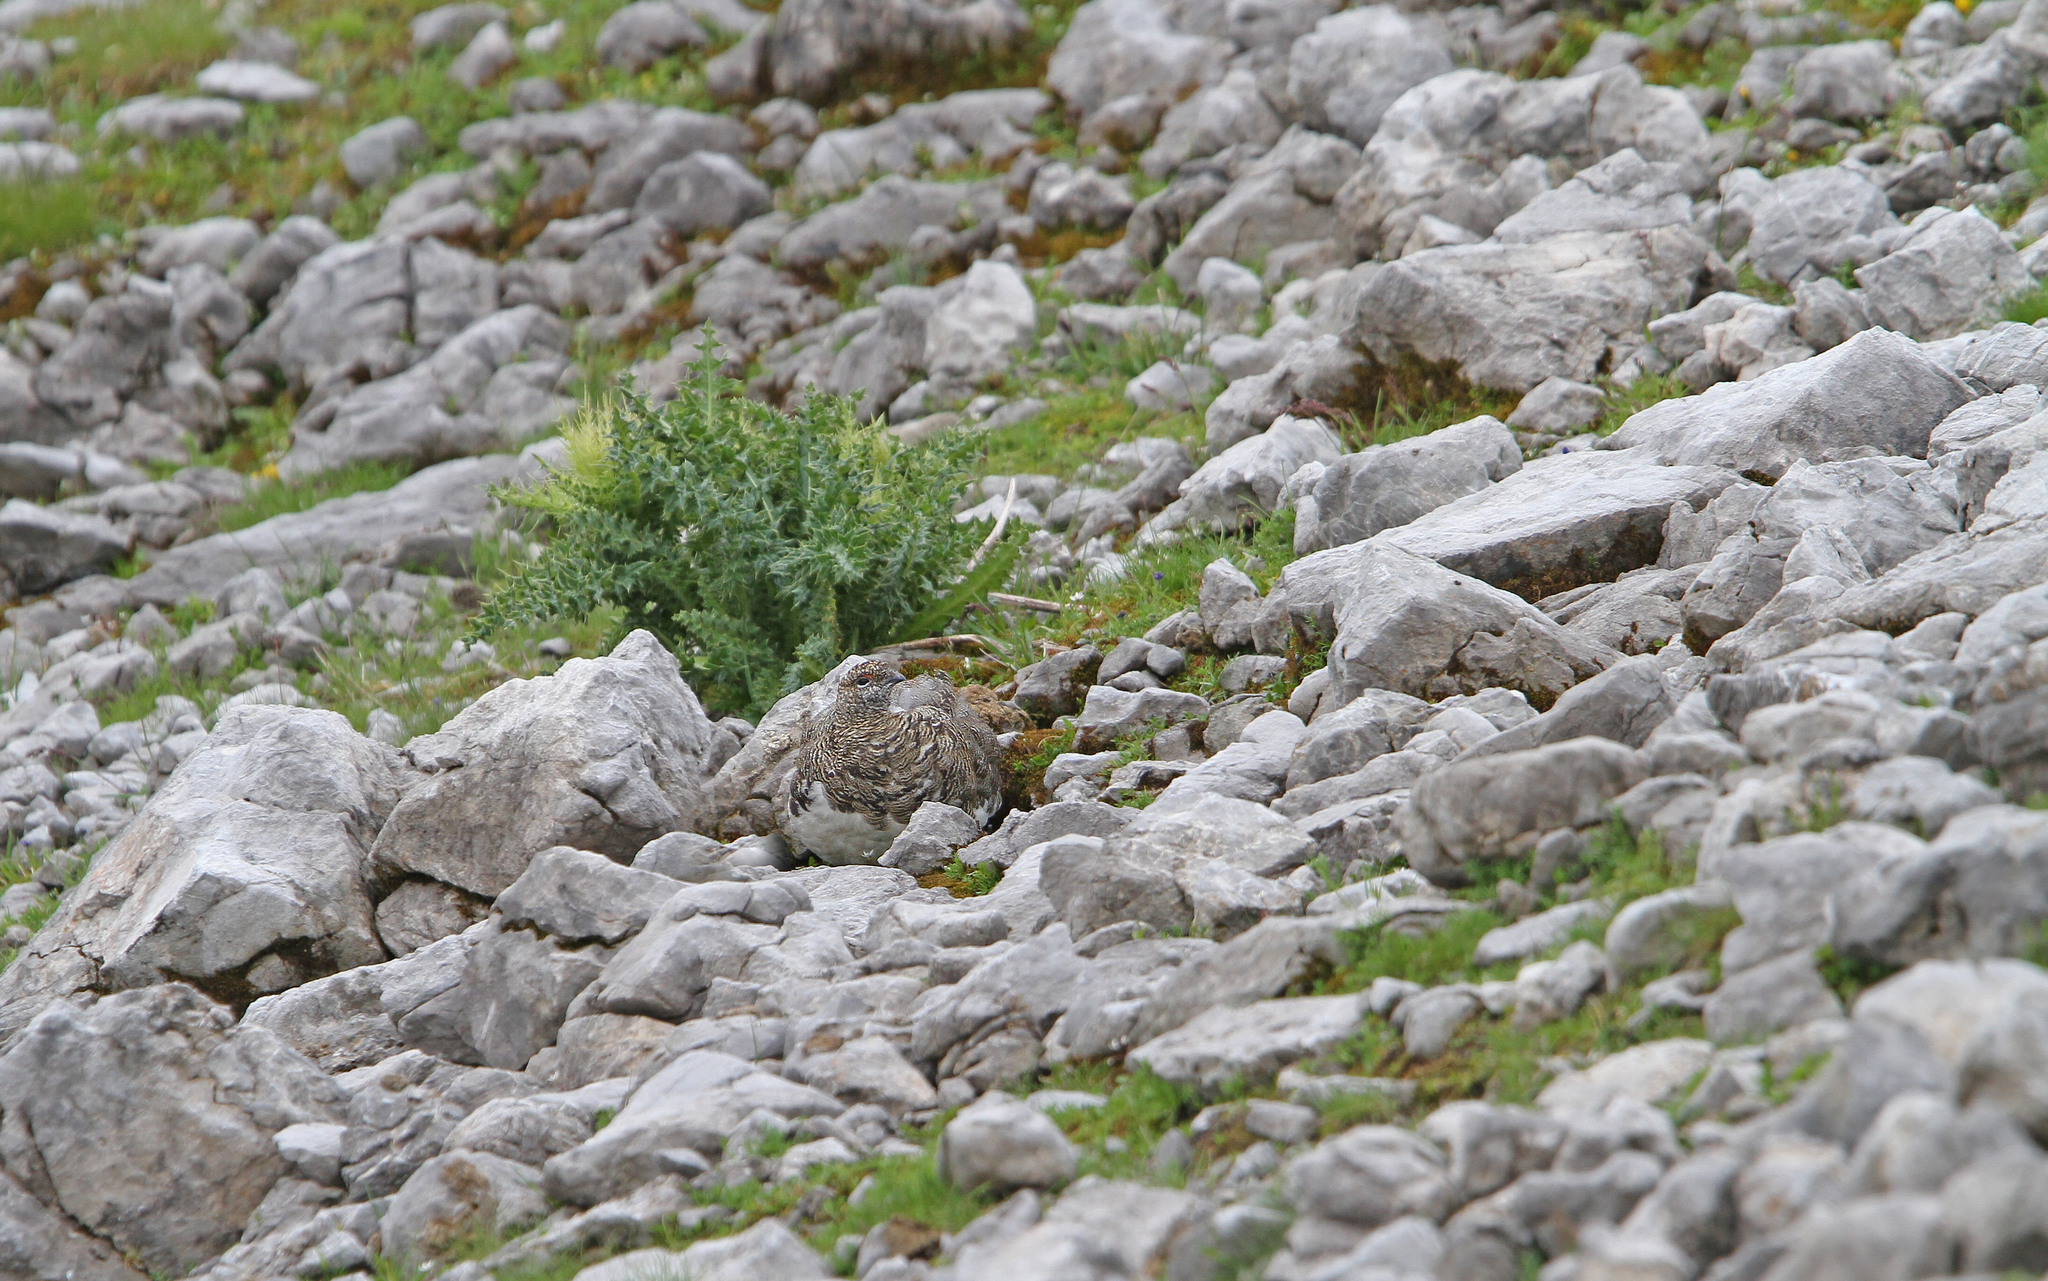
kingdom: Animalia
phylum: Chordata
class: Aves
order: Galliformes
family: Phasianidae
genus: Lagopus
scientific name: Lagopus muta
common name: Rock ptarmigan
